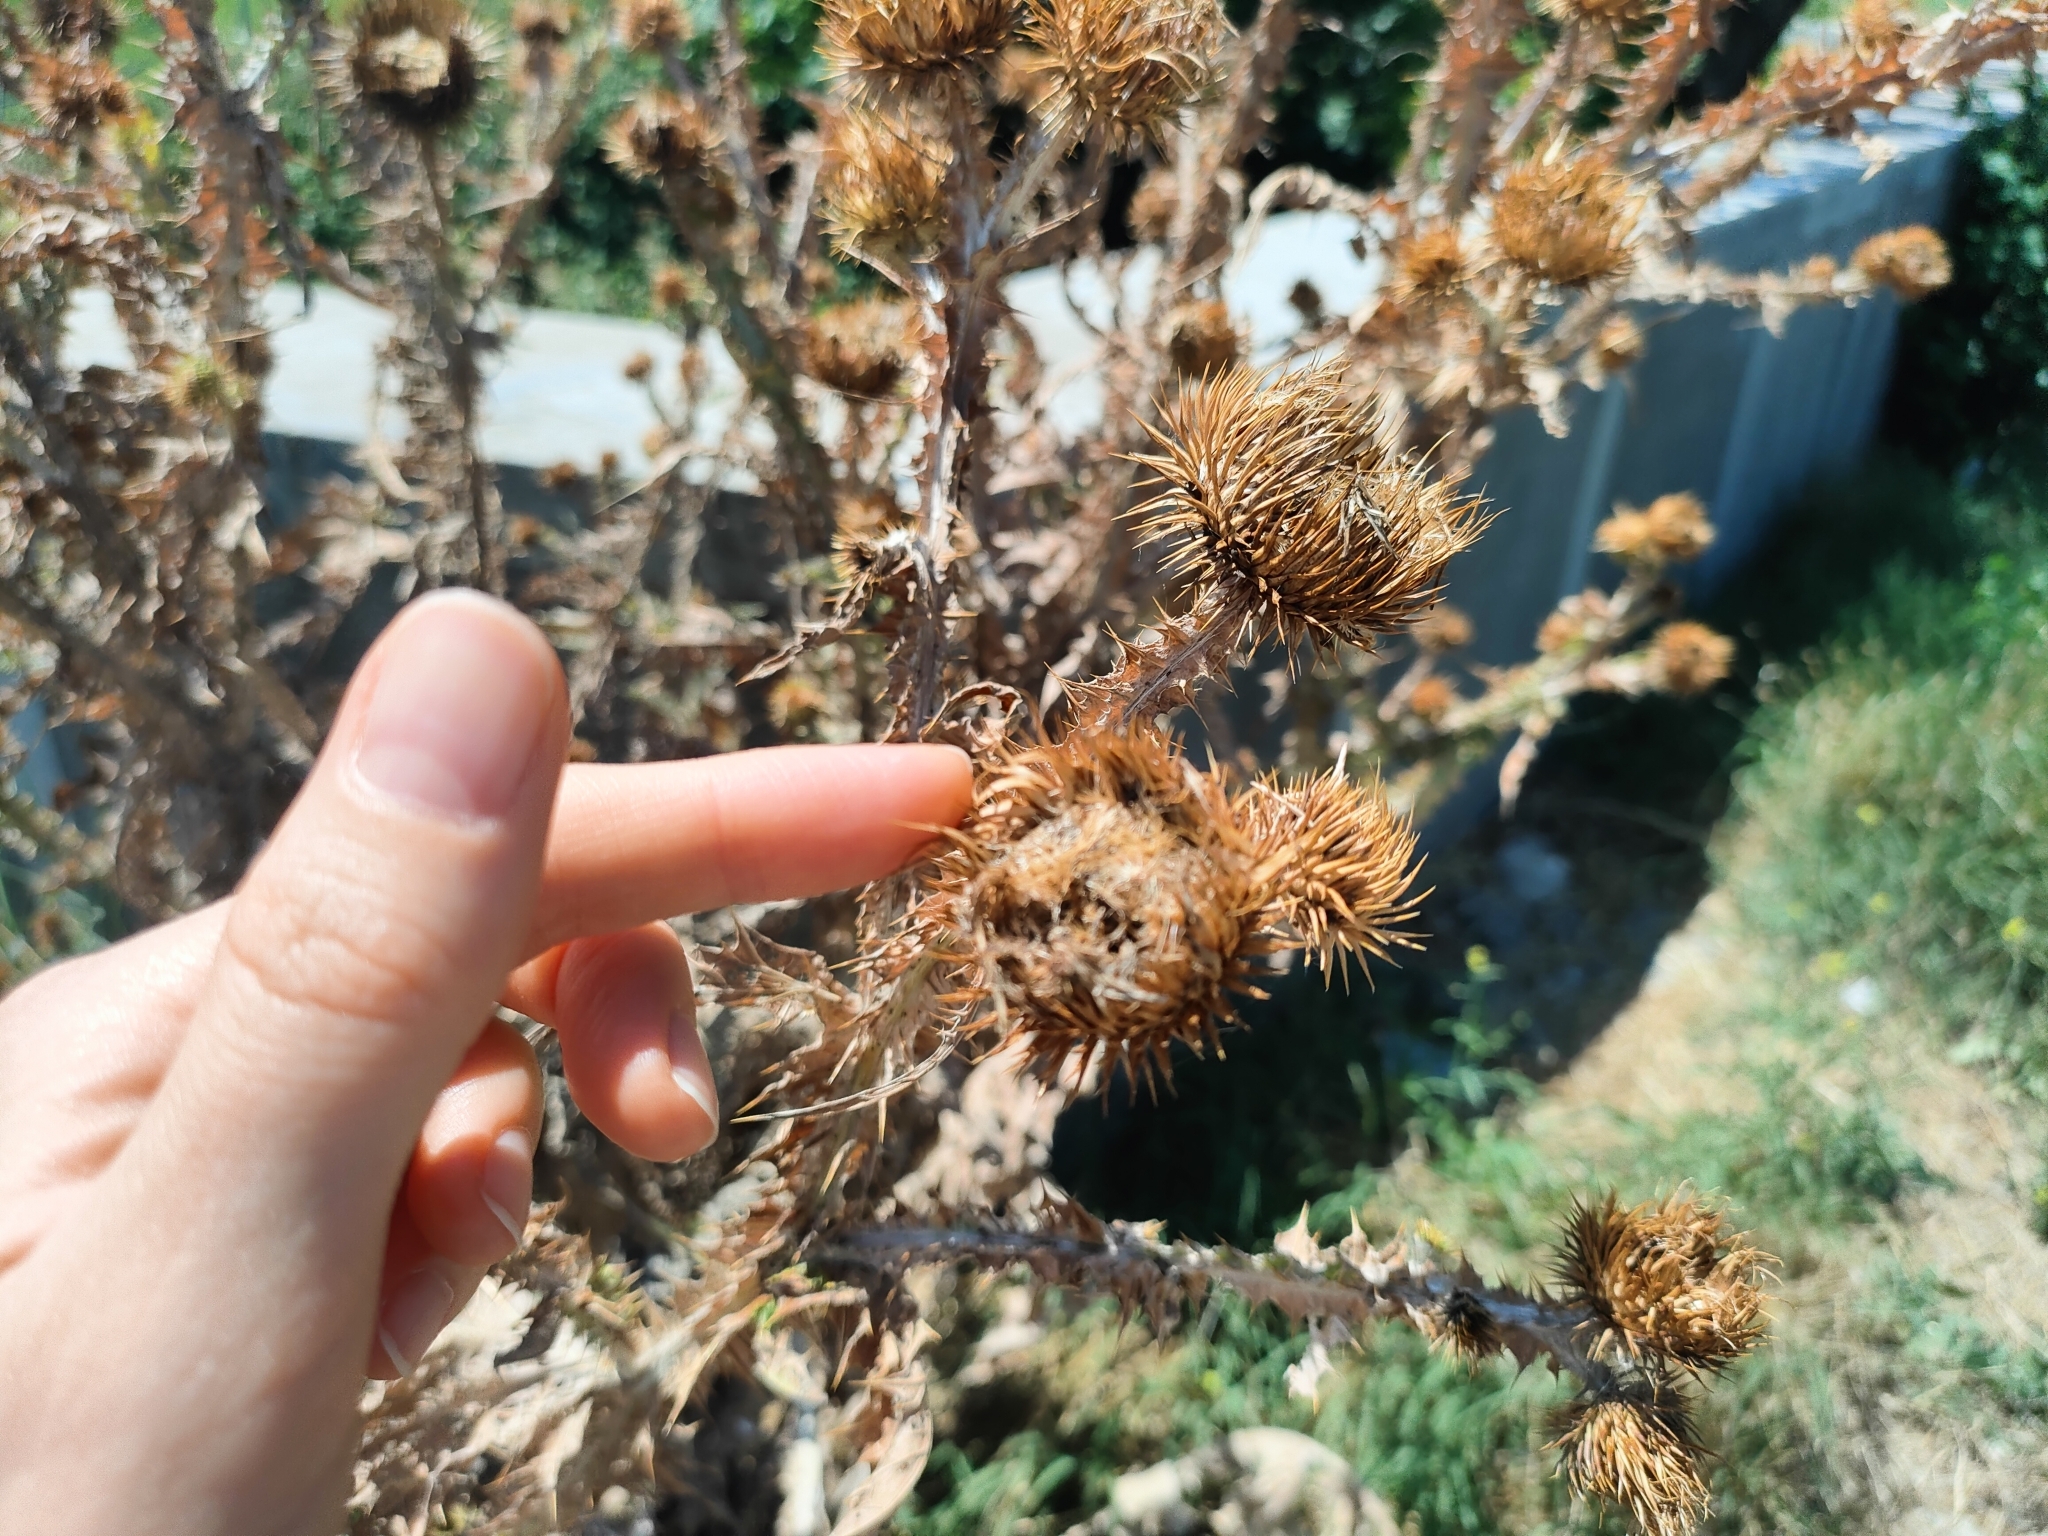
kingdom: Plantae
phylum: Tracheophyta
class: Magnoliopsida
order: Asterales
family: Asteraceae
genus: Onopordum
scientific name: Onopordum acanthium
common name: Scotch thistle
